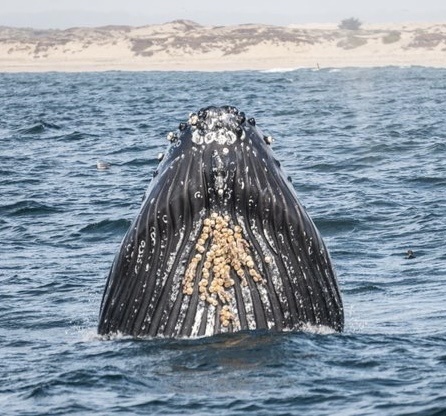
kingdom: Animalia
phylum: Chordata
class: Mammalia
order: Cetacea
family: Balaenopteridae
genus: Megaptera
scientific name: Megaptera novaeangliae
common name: Humpback whale
